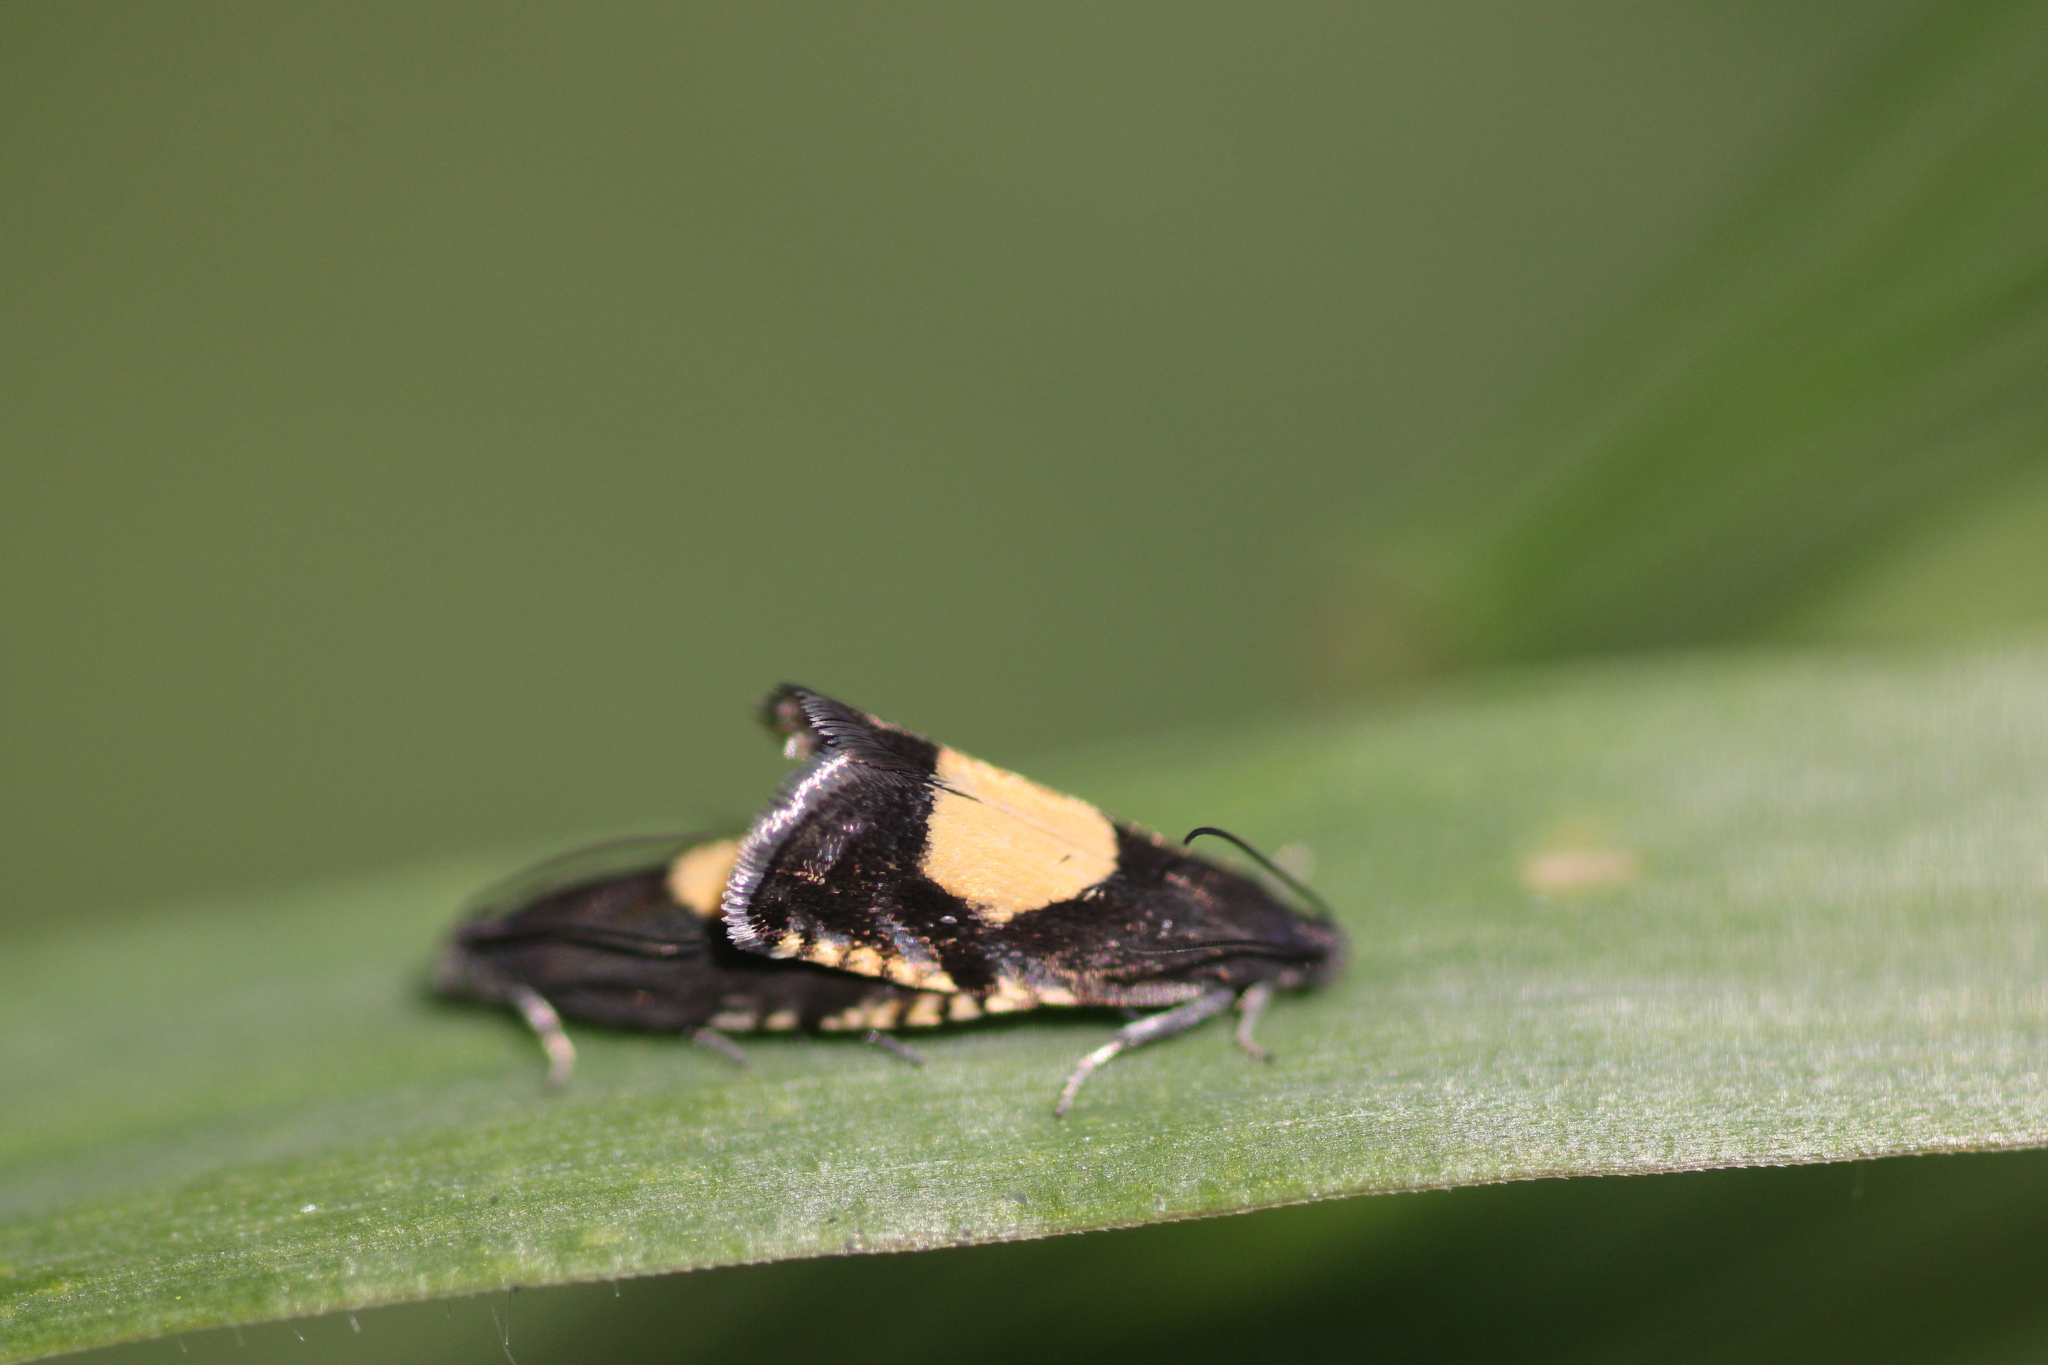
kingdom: Animalia
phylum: Arthropoda
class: Insecta
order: Lepidoptera
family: Tortricidae
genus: Pammene
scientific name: Pammene regiana
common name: Regal piercer
